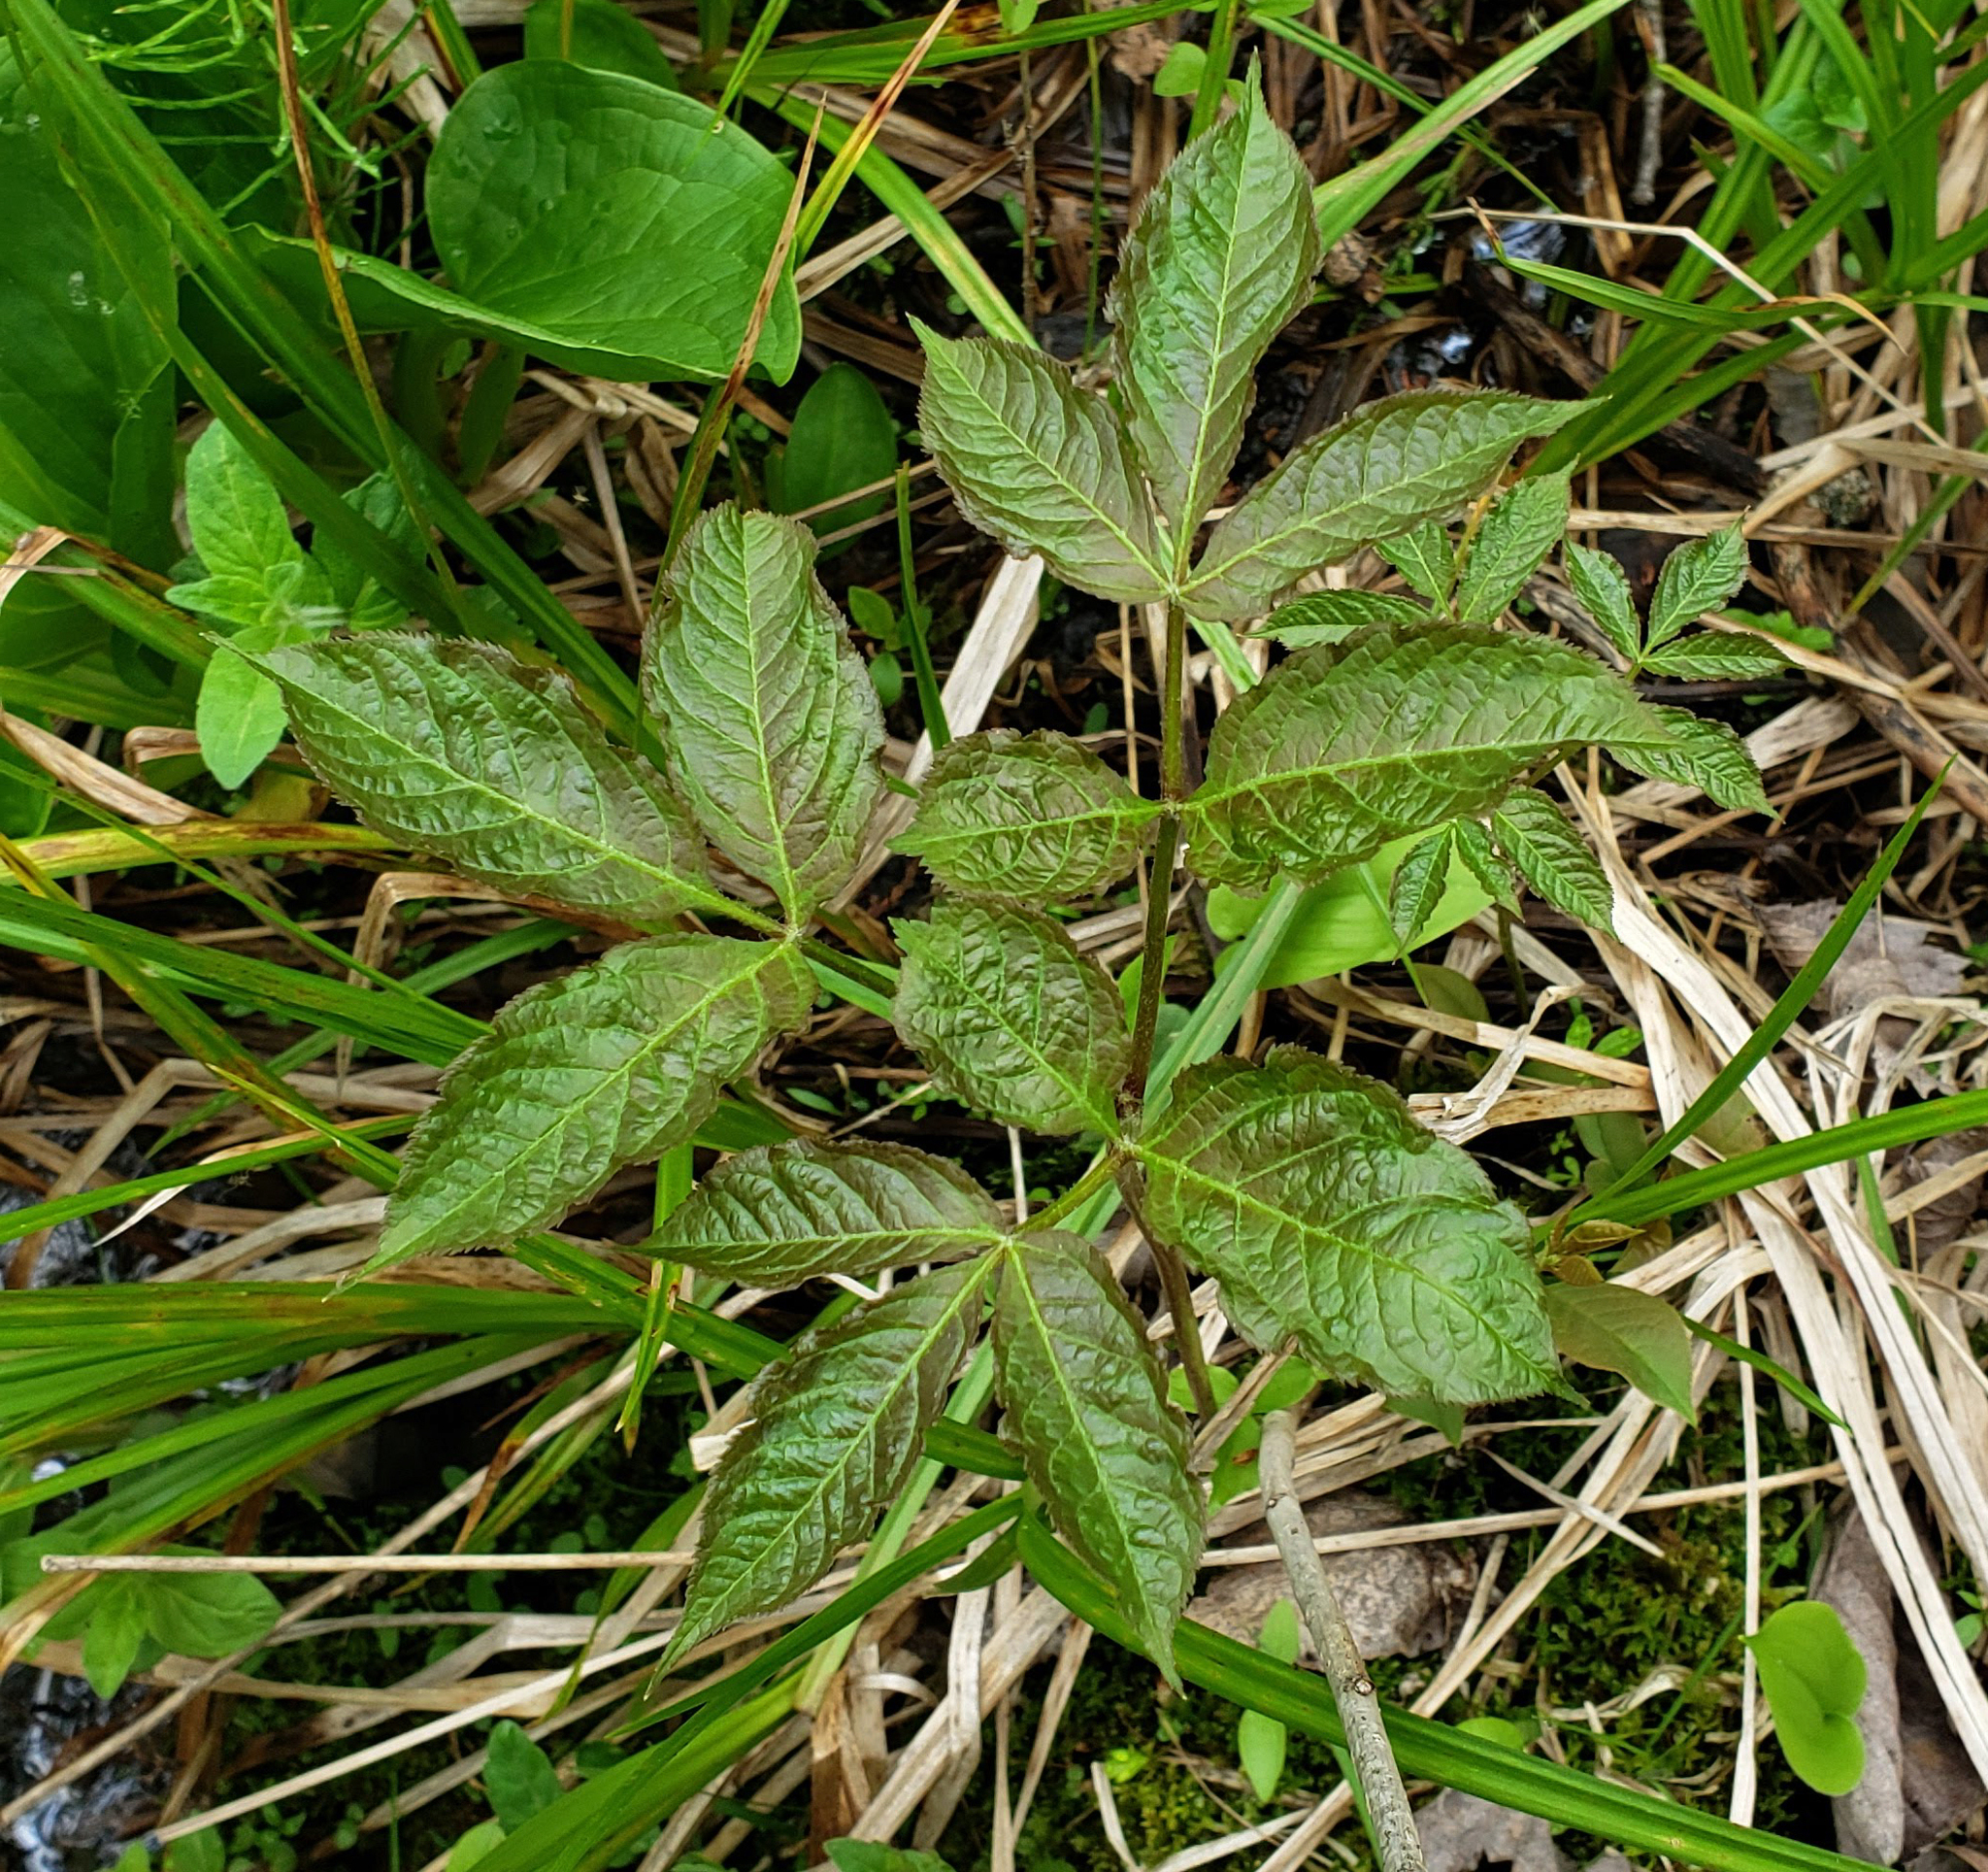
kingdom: Plantae
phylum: Tracheophyta
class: Magnoliopsida
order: Apiales
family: Araliaceae
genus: Aralia
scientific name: Aralia nudicaulis
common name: Wild sarsaparilla
